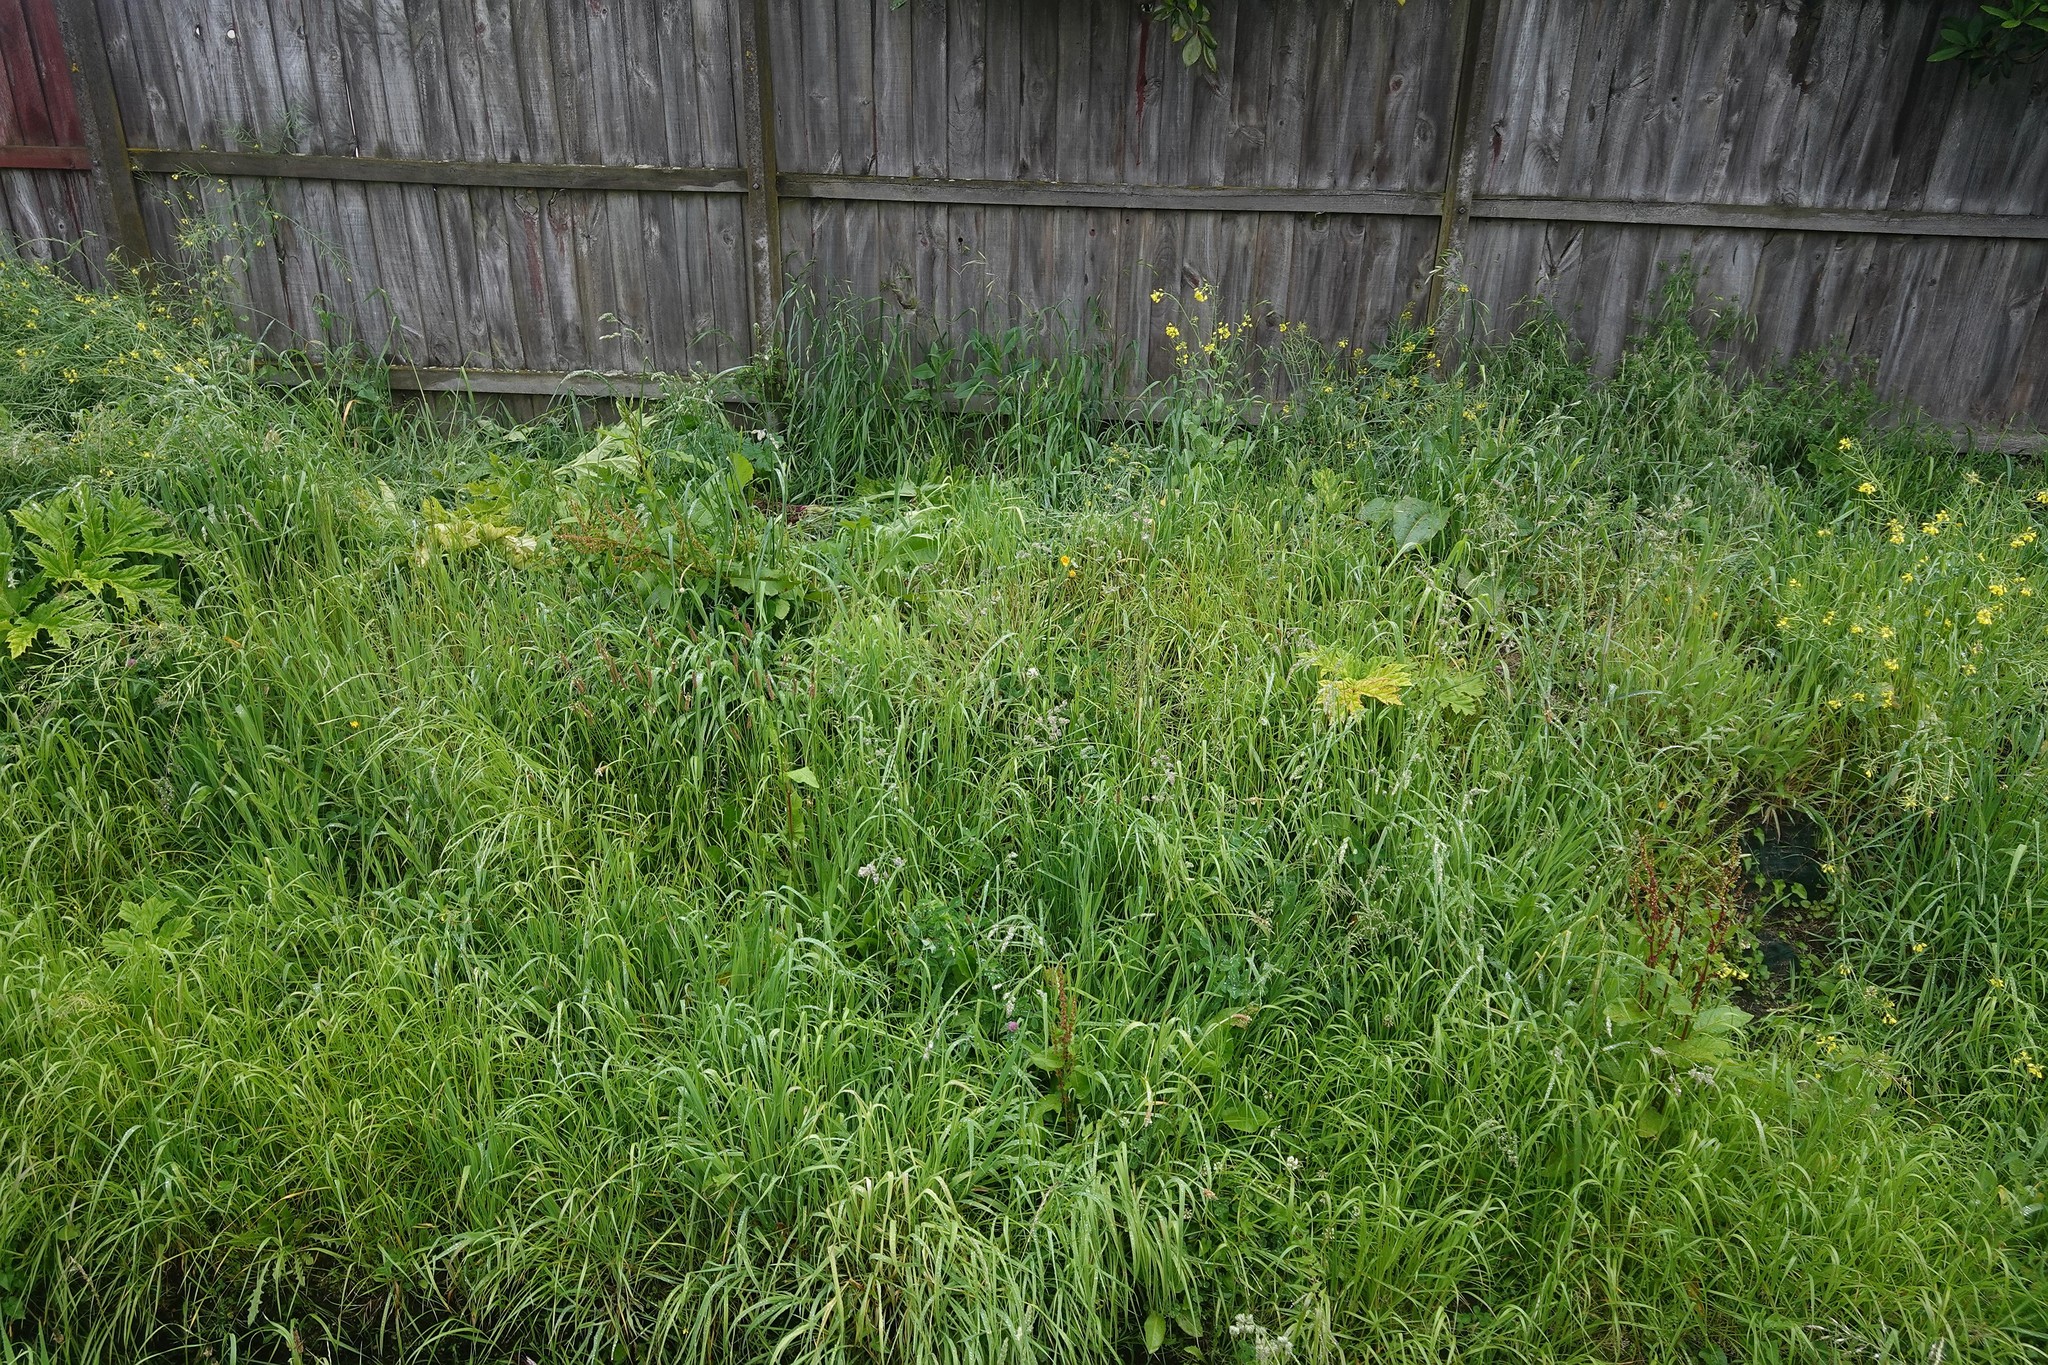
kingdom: Plantae
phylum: Tracheophyta
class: Magnoliopsida
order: Apiales
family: Apiaceae
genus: Heracleum
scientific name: Heracleum mantegazzianum
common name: Giant hogweed
